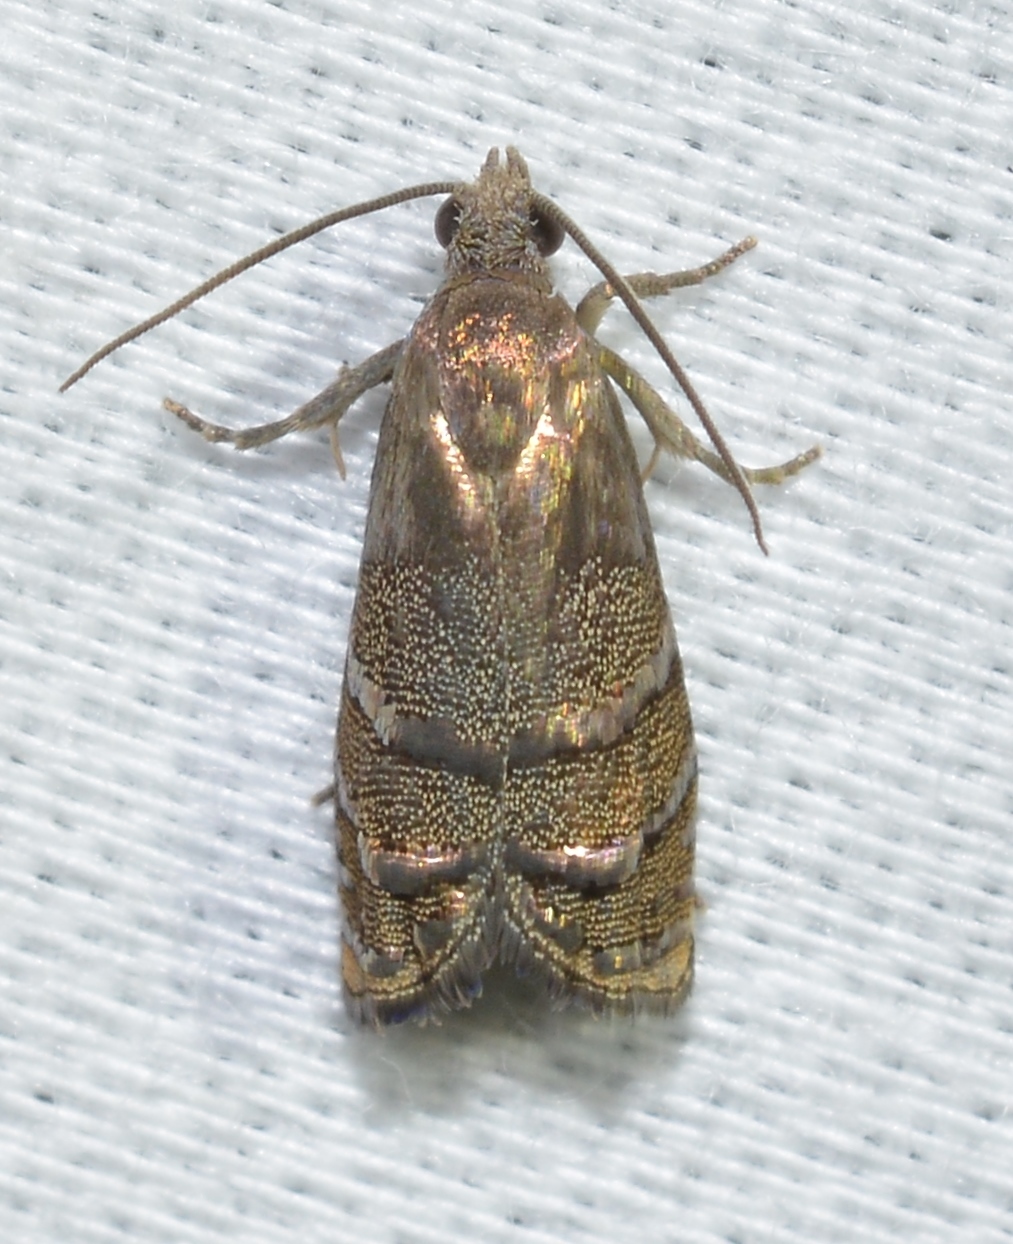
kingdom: Animalia
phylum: Arthropoda
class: Insecta
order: Lepidoptera
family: Tortricidae
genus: Cydia
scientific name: Cydia toreuta
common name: Eastern pine seedworm moth
